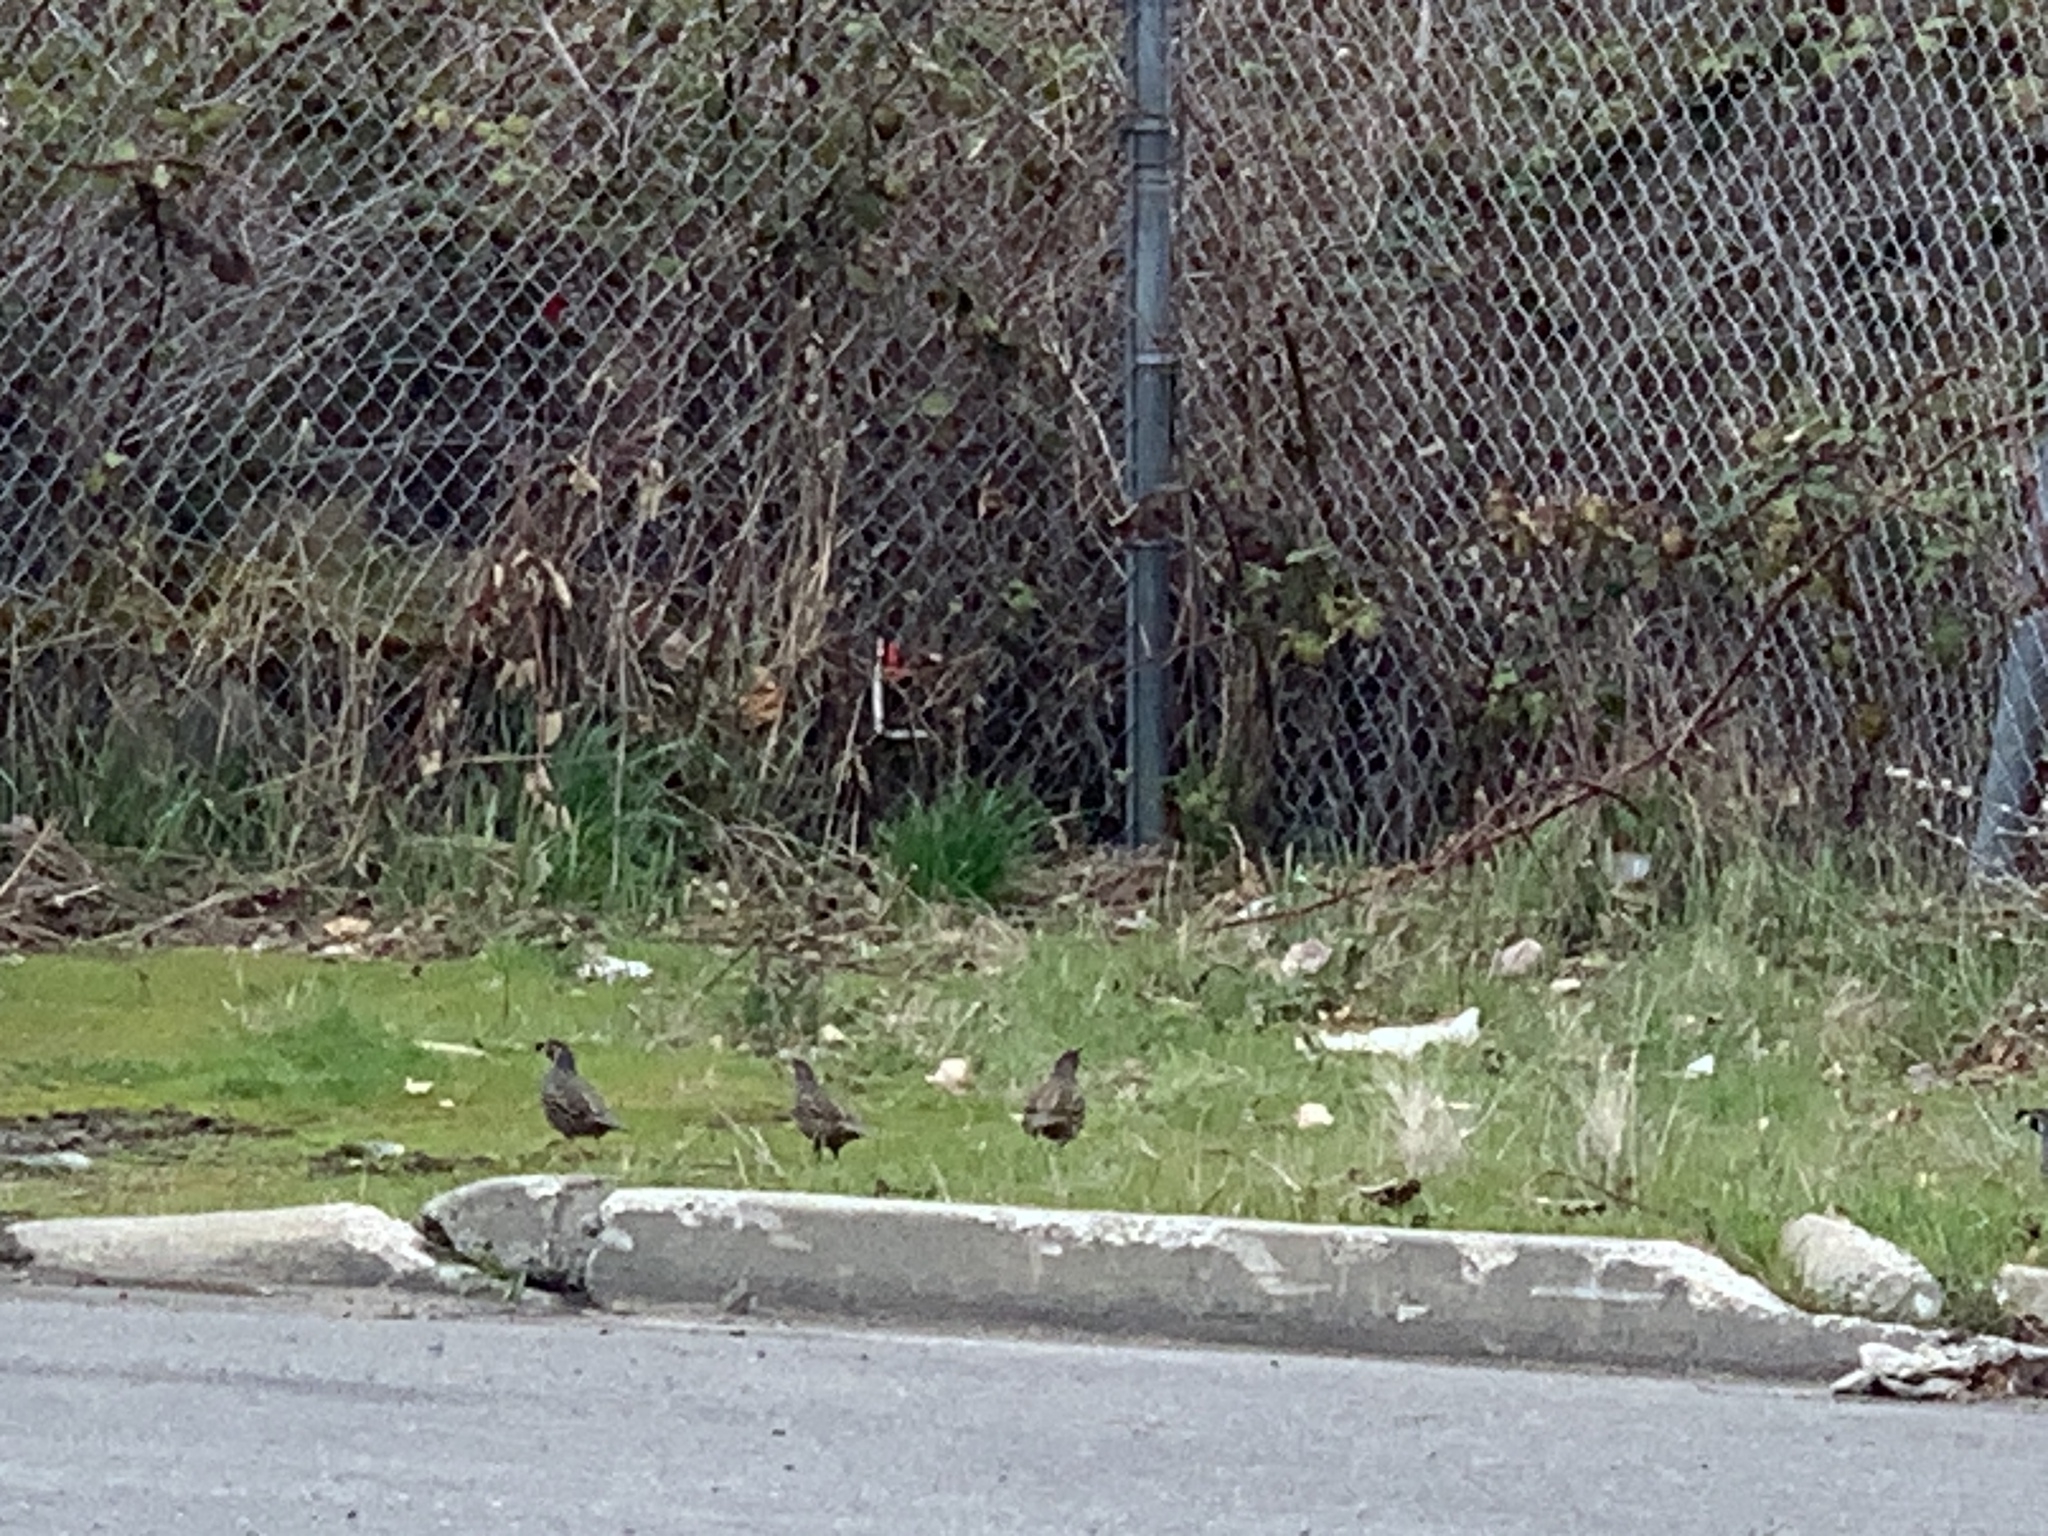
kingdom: Animalia
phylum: Chordata
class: Aves
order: Galliformes
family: Odontophoridae
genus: Callipepla
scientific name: Callipepla californica
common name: California quail
